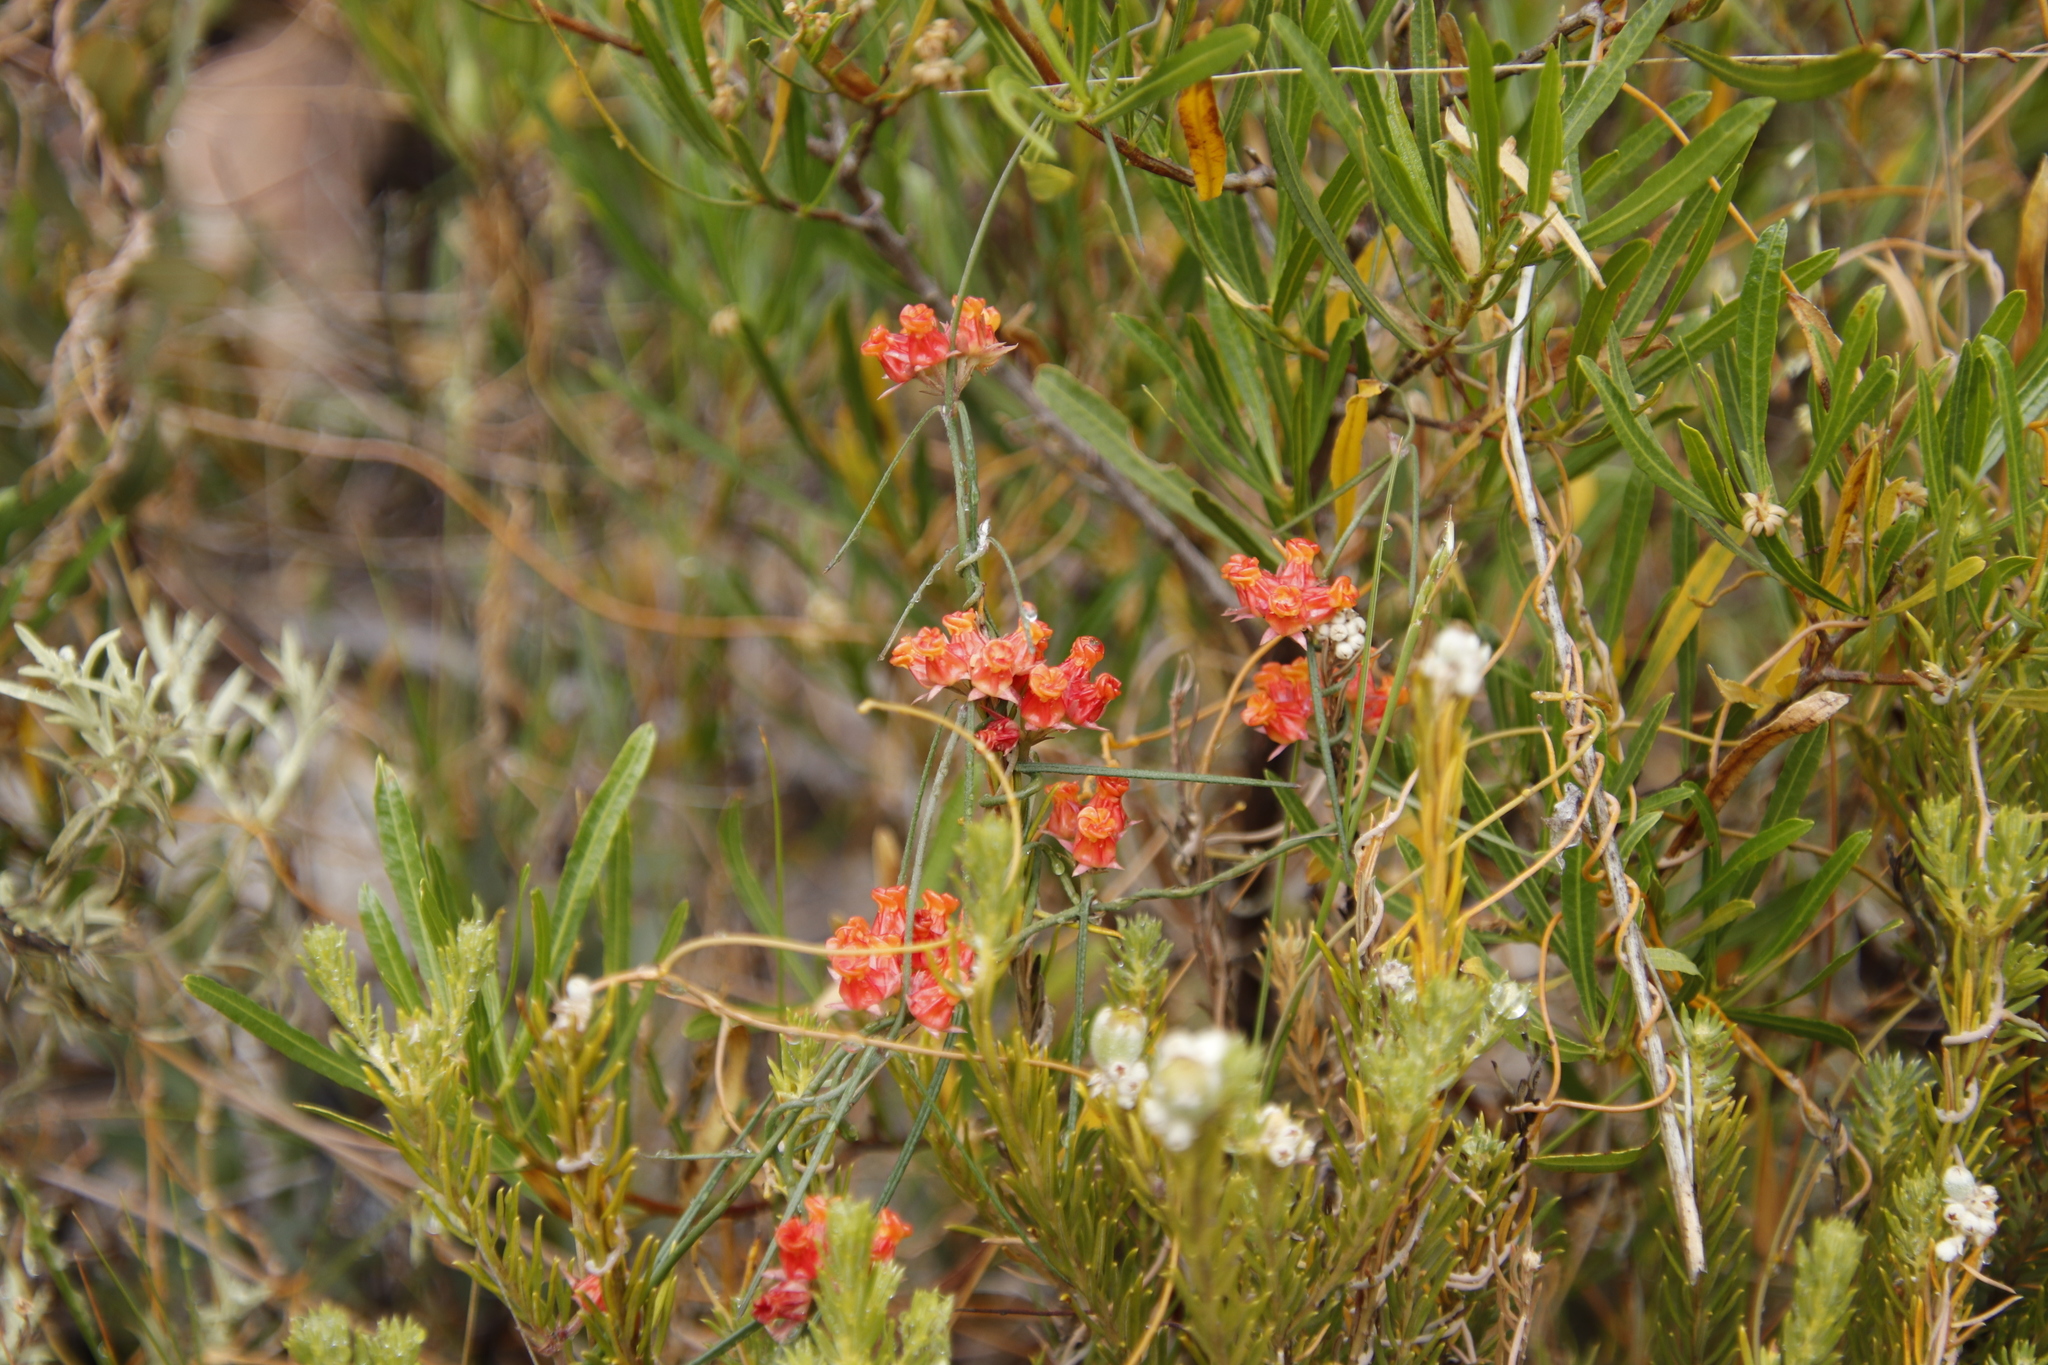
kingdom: Plantae
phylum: Tracheophyta
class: Magnoliopsida
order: Gentianales
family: Apocynaceae
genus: Microloma
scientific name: Microloma tenuifolium
